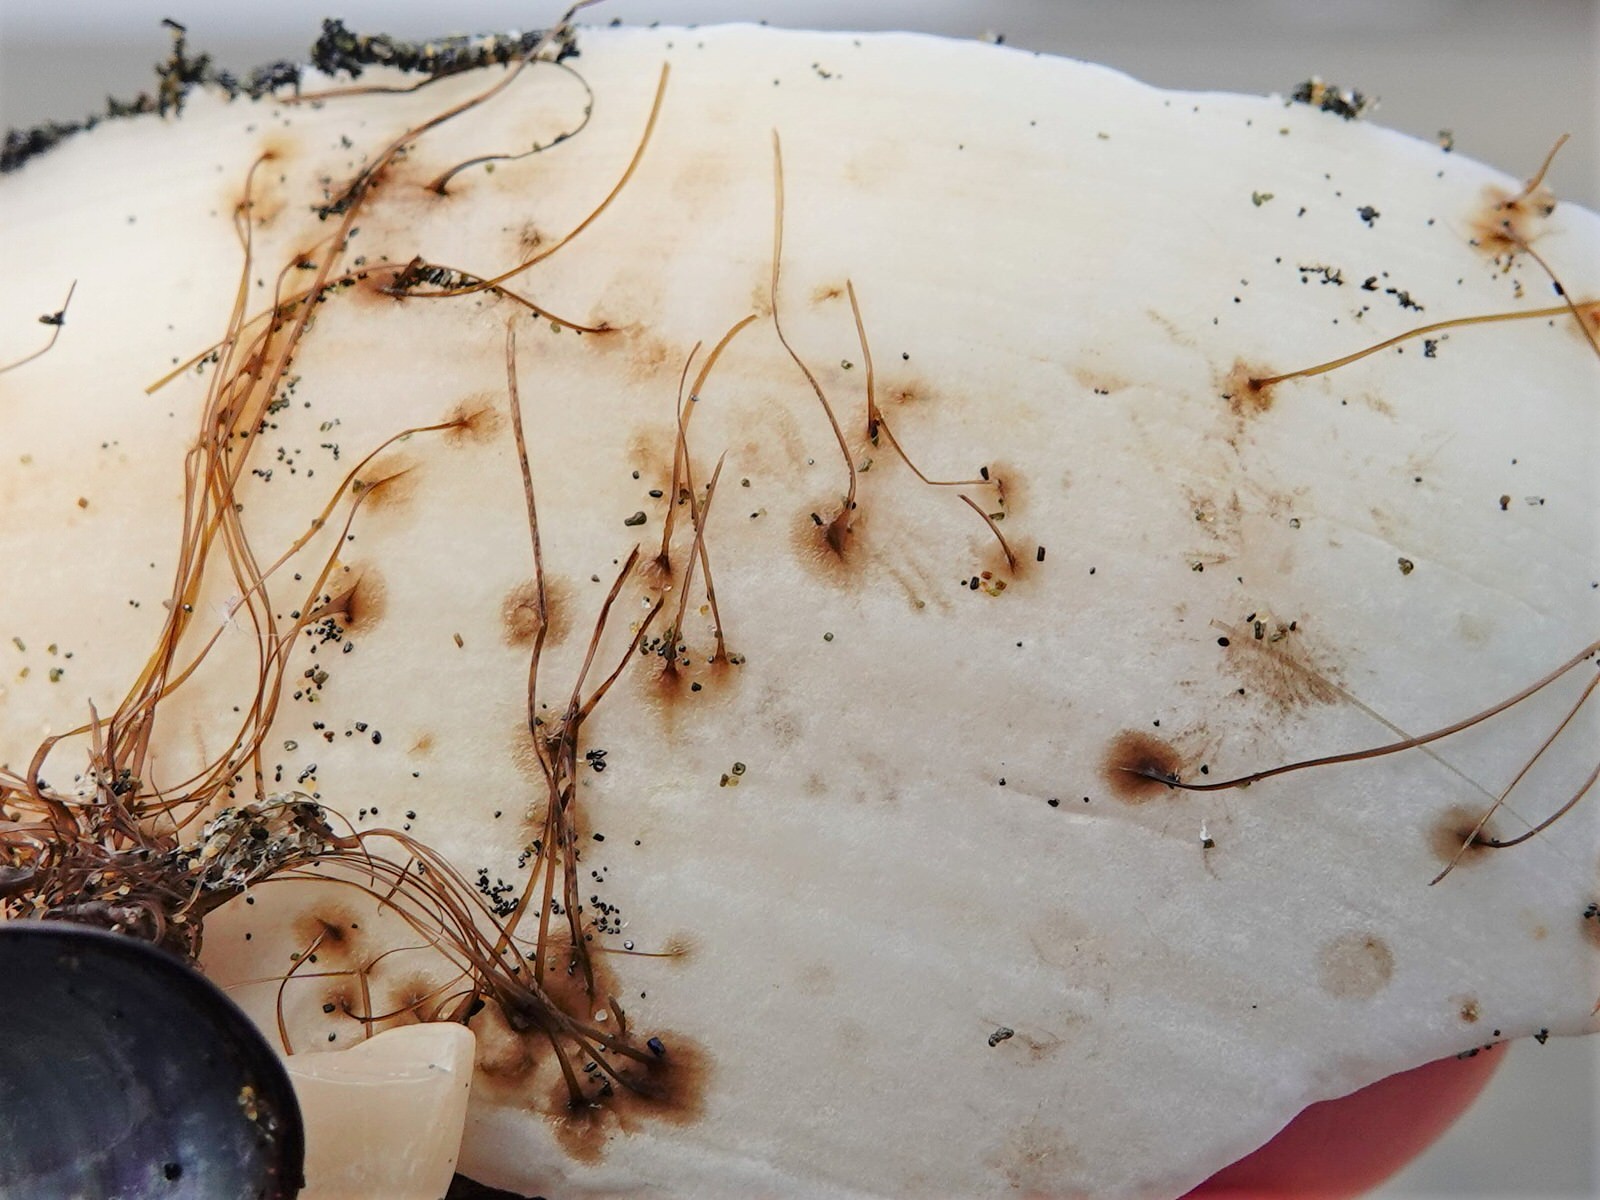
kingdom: Animalia
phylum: Mollusca
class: Bivalvia
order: Mytilida
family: Mytilidae
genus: Perna
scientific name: Perna canaliculus
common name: New zealand greenshelltm
